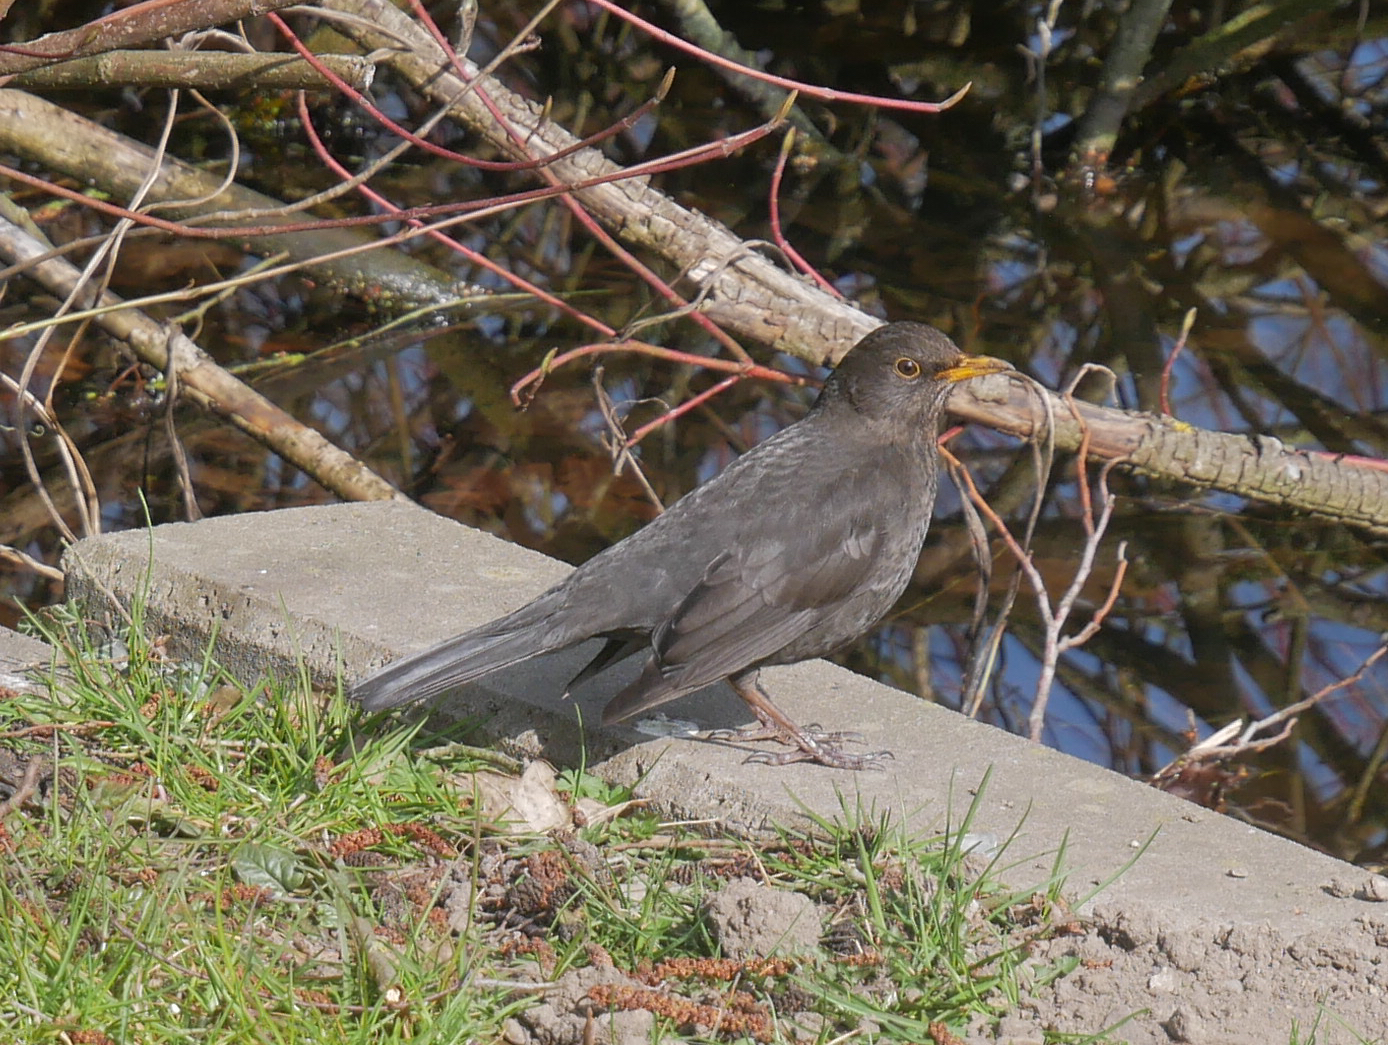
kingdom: Animalia
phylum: Chordata
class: Aves
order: Passeriformes
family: Turdidae
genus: Turdus
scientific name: Turdus merula
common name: Common blackbird
